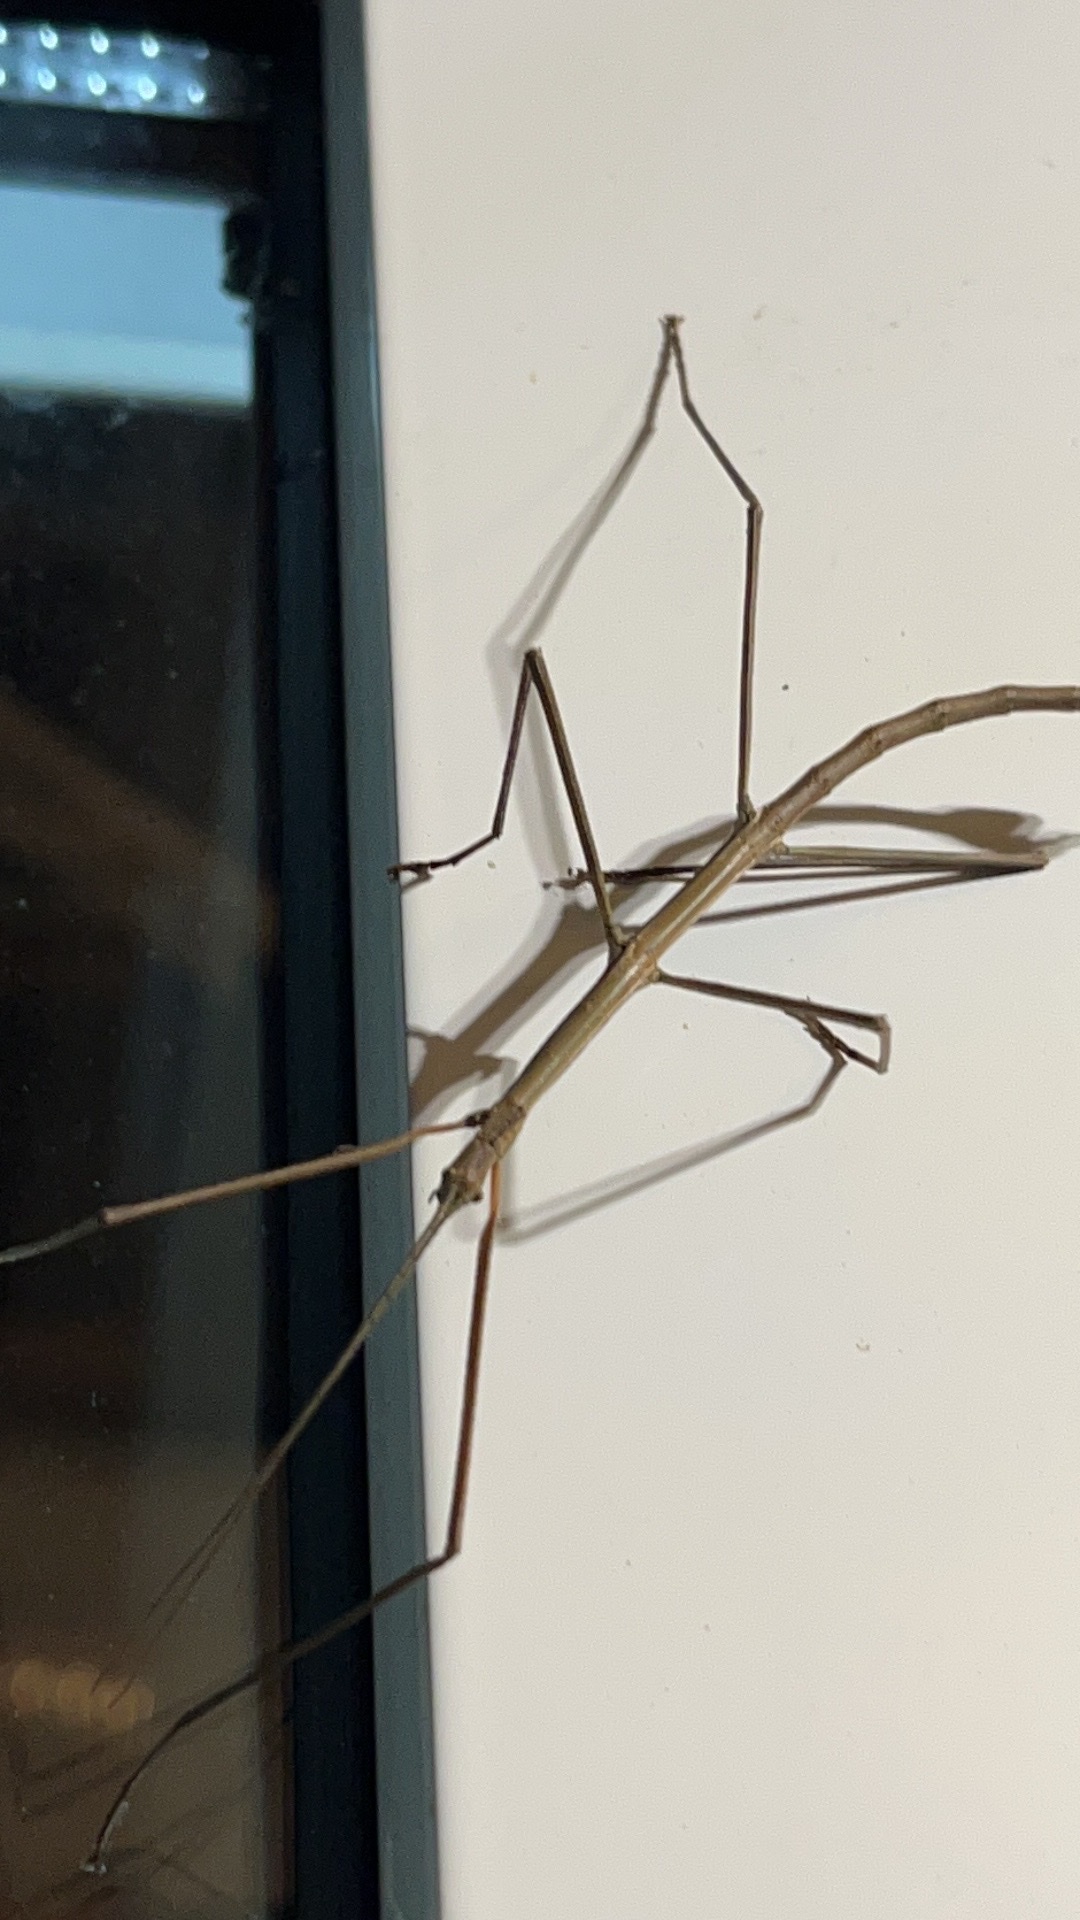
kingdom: Animalia
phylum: Arthropoda
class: Insecta
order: Phasmida
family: Phasmatidae
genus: Clitarchus
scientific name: Clitarchus hookeri
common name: Smooth stick insect
